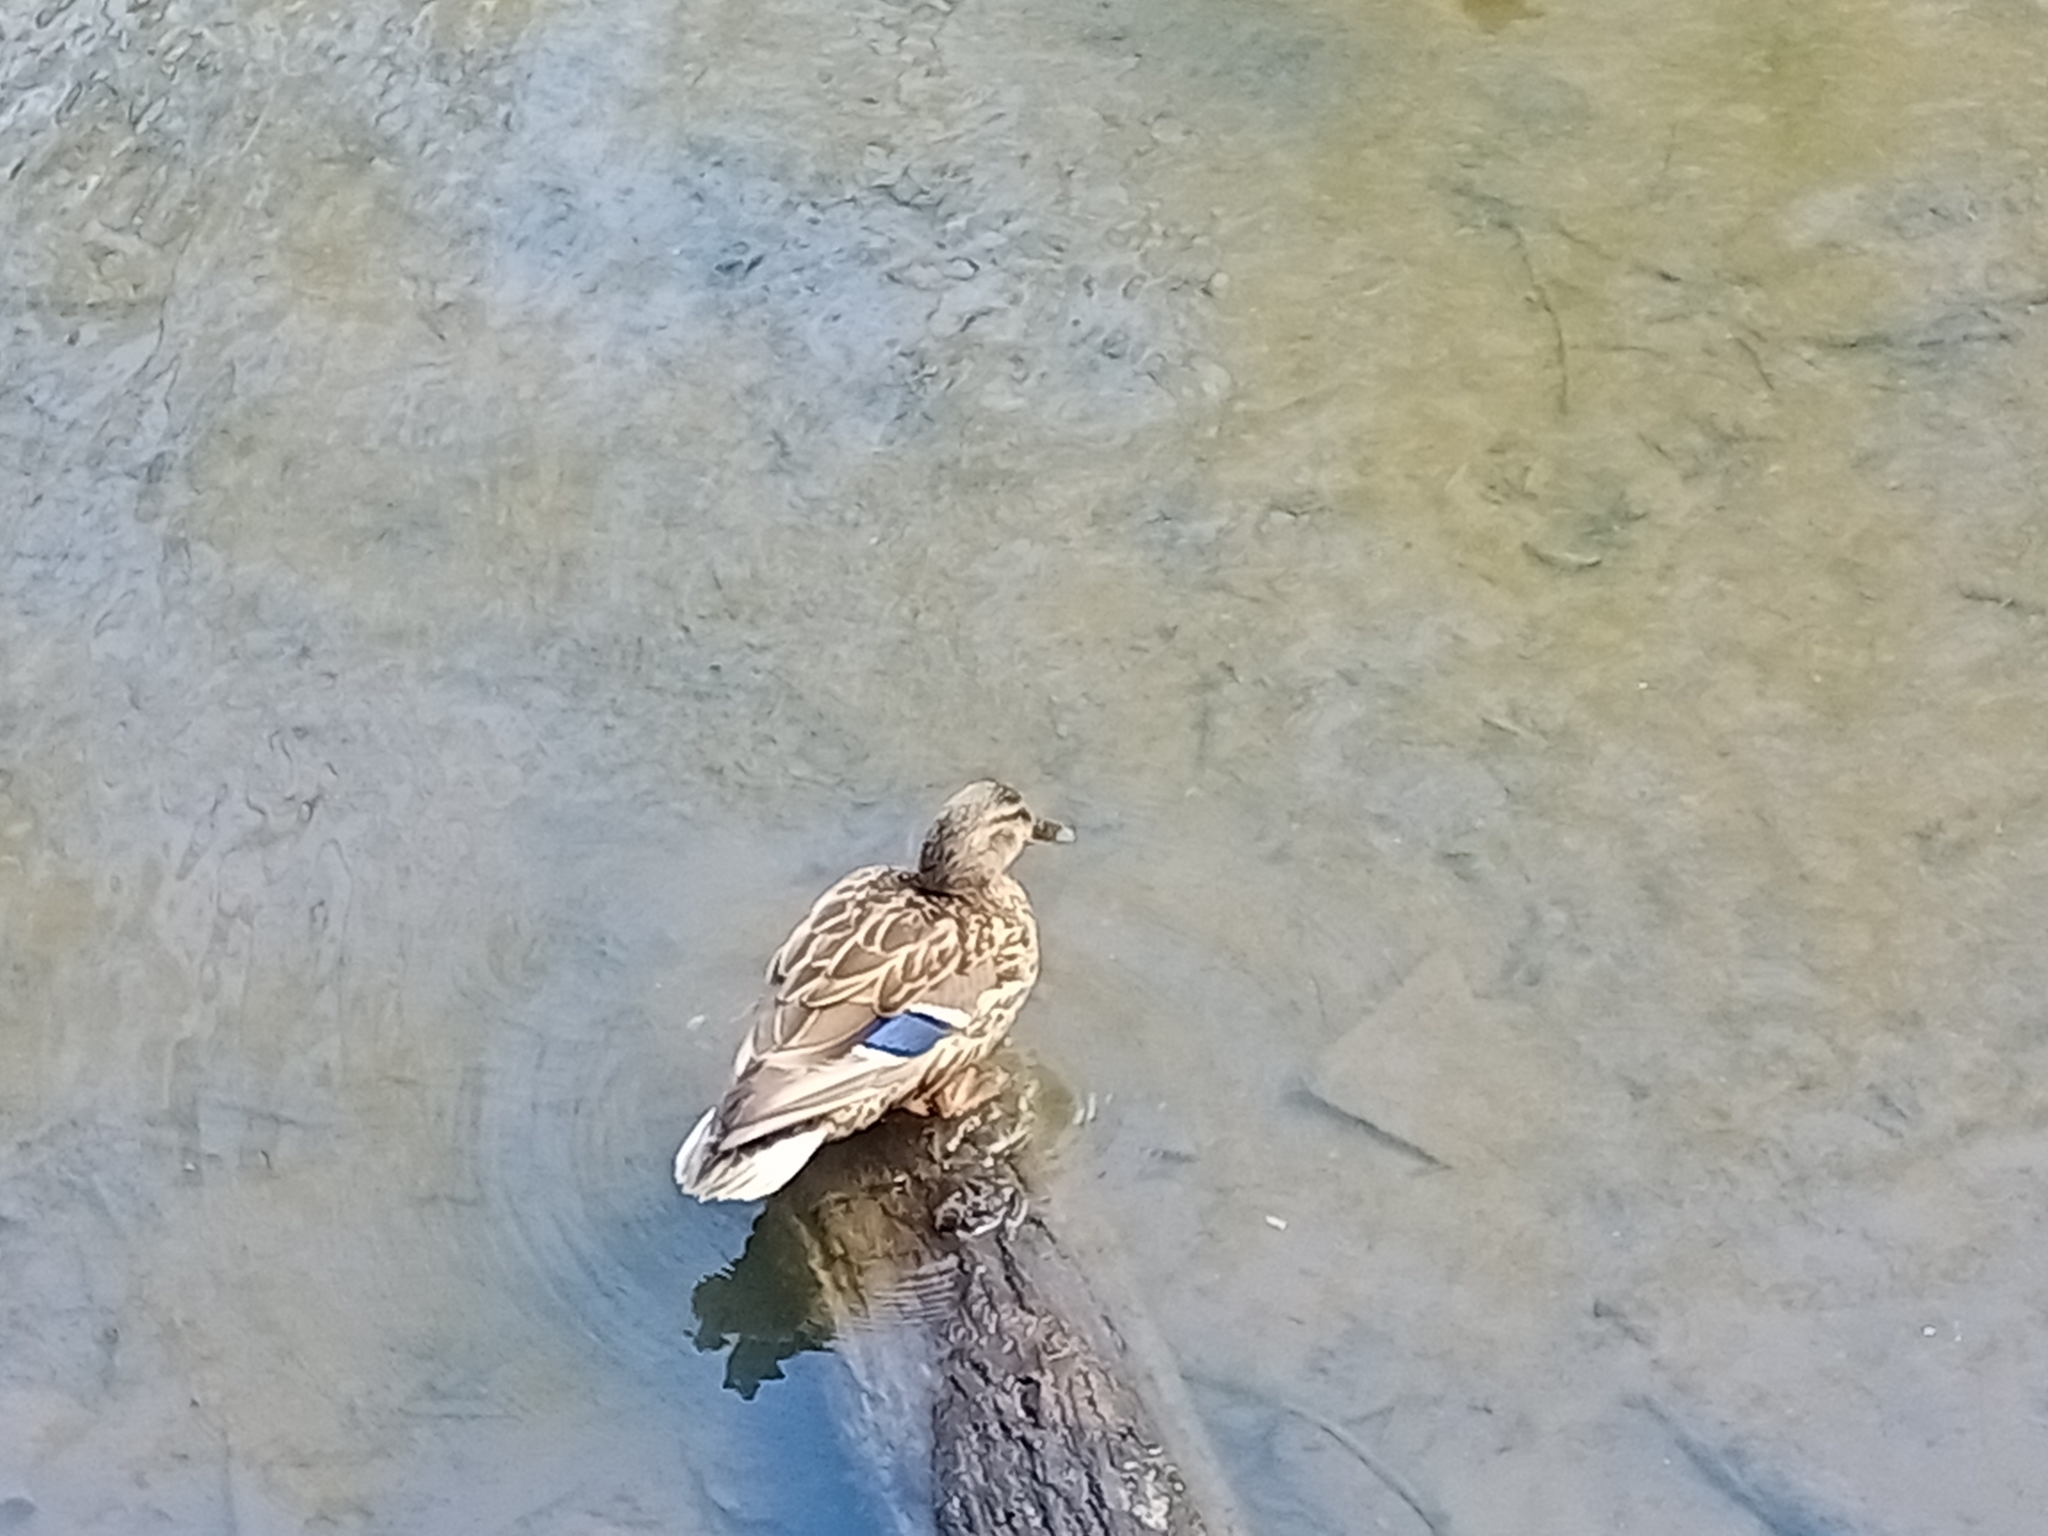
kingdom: Animalia
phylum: Chordata
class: Aves
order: Anseriformes
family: Anatidae
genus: Anas
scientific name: Anas platyrhynchos
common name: Mallard
